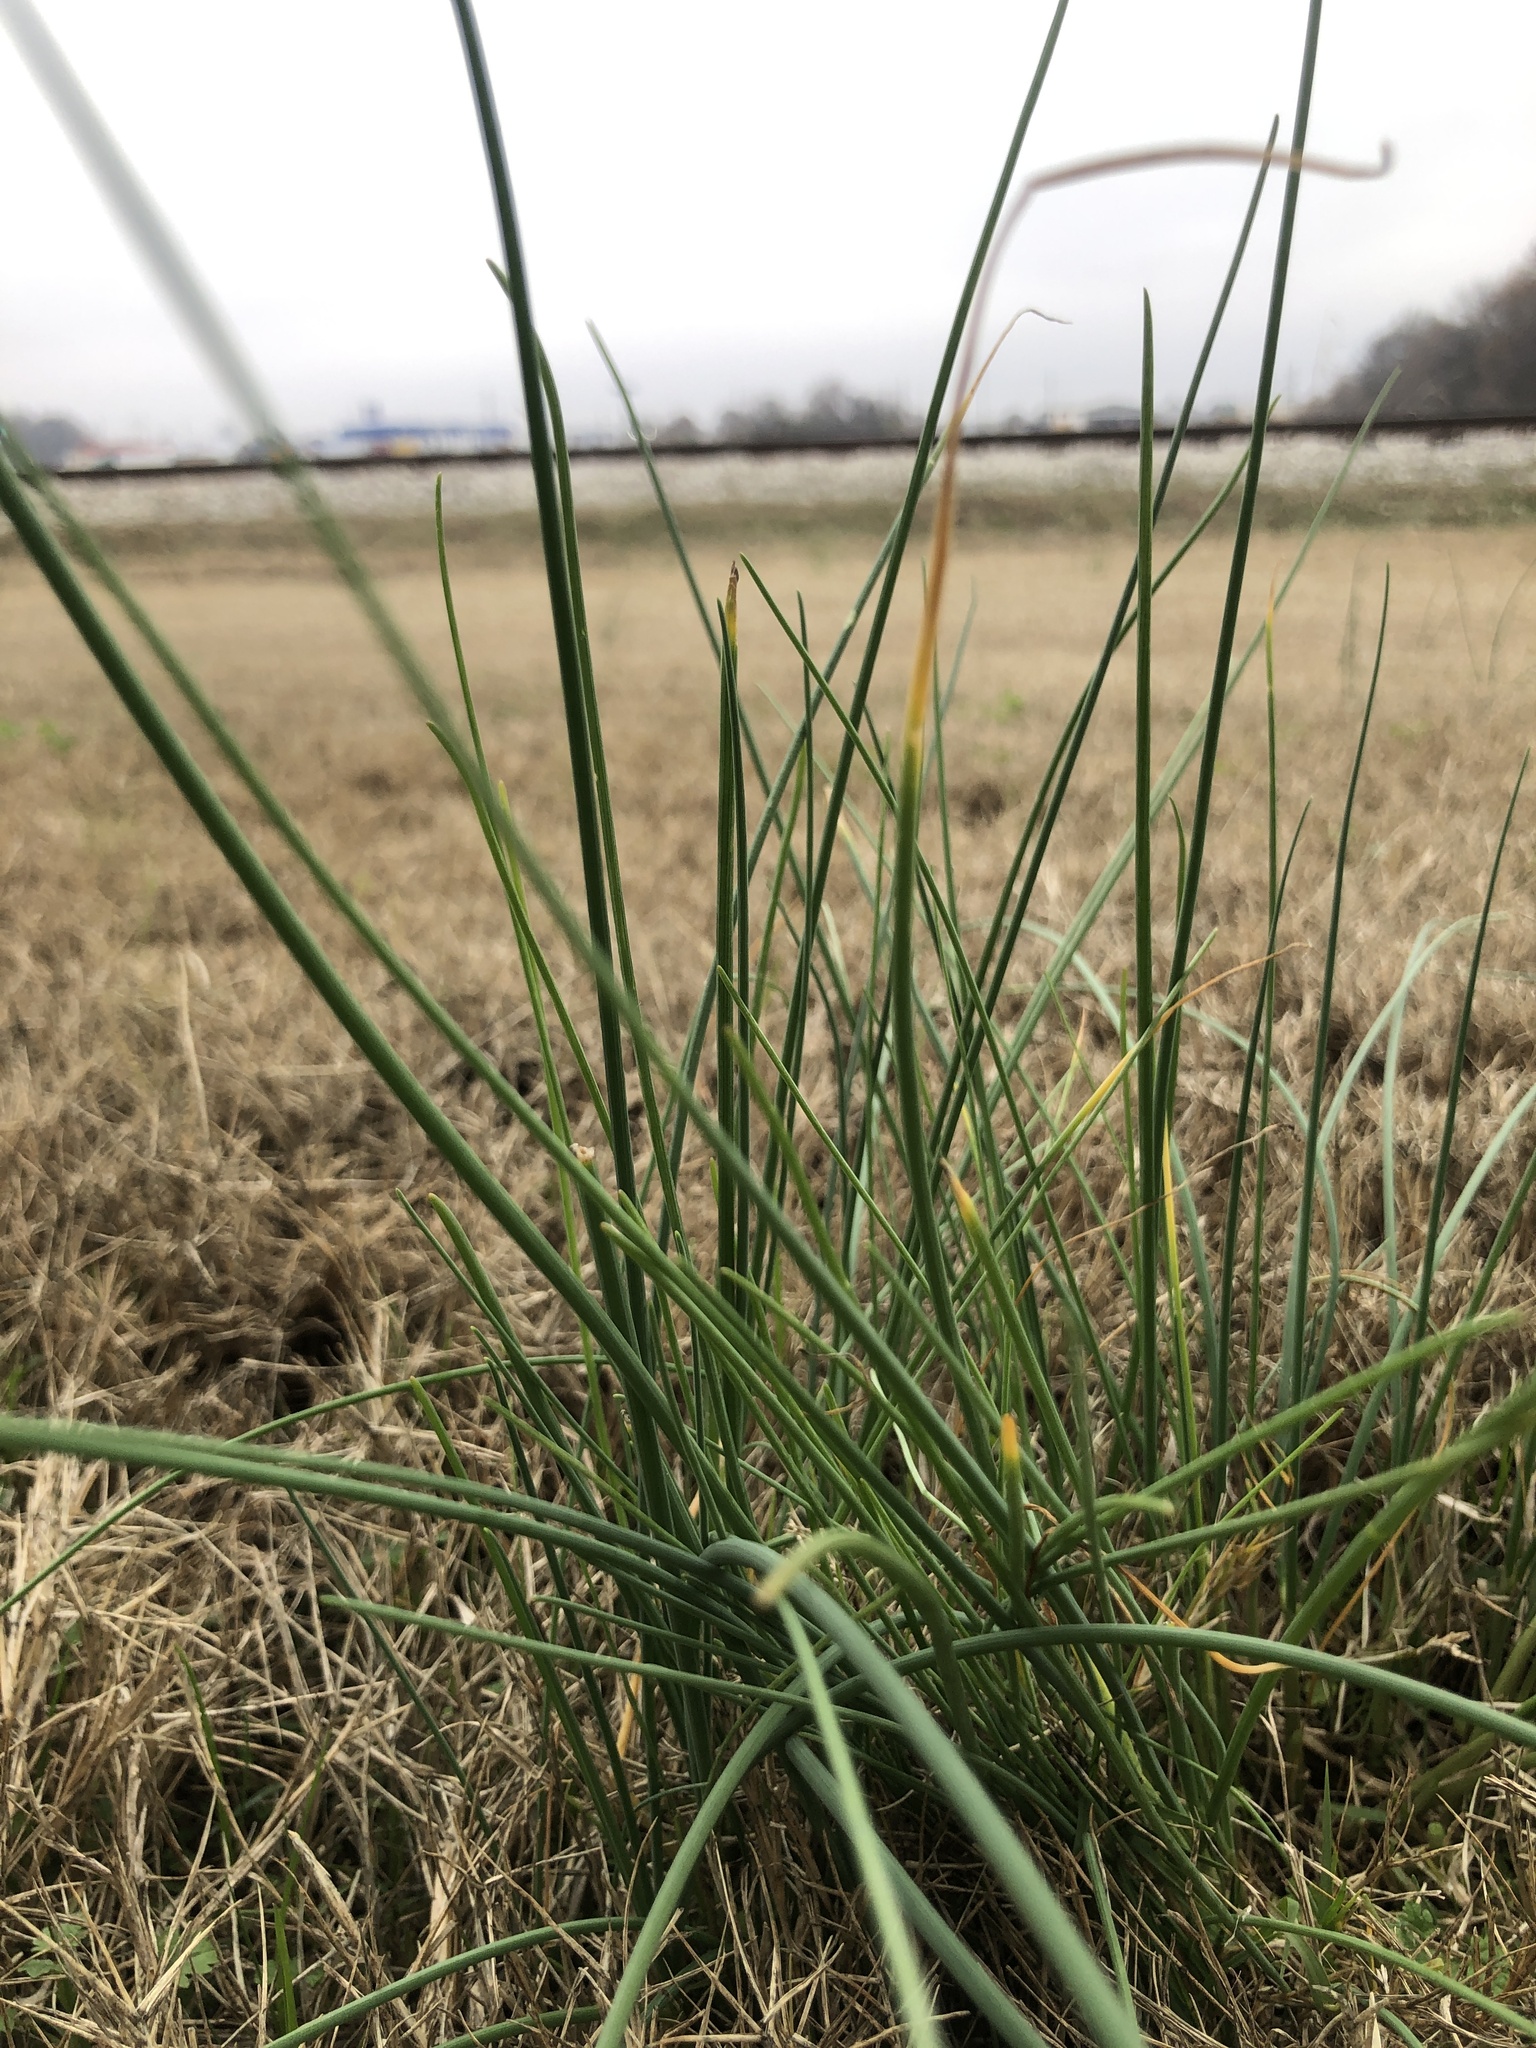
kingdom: Plantae
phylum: Tracheophyta
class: Liliopsida
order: Asparagales
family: Amaryllidaceae
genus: Allium
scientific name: Allium vineale
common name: Crow garlic
